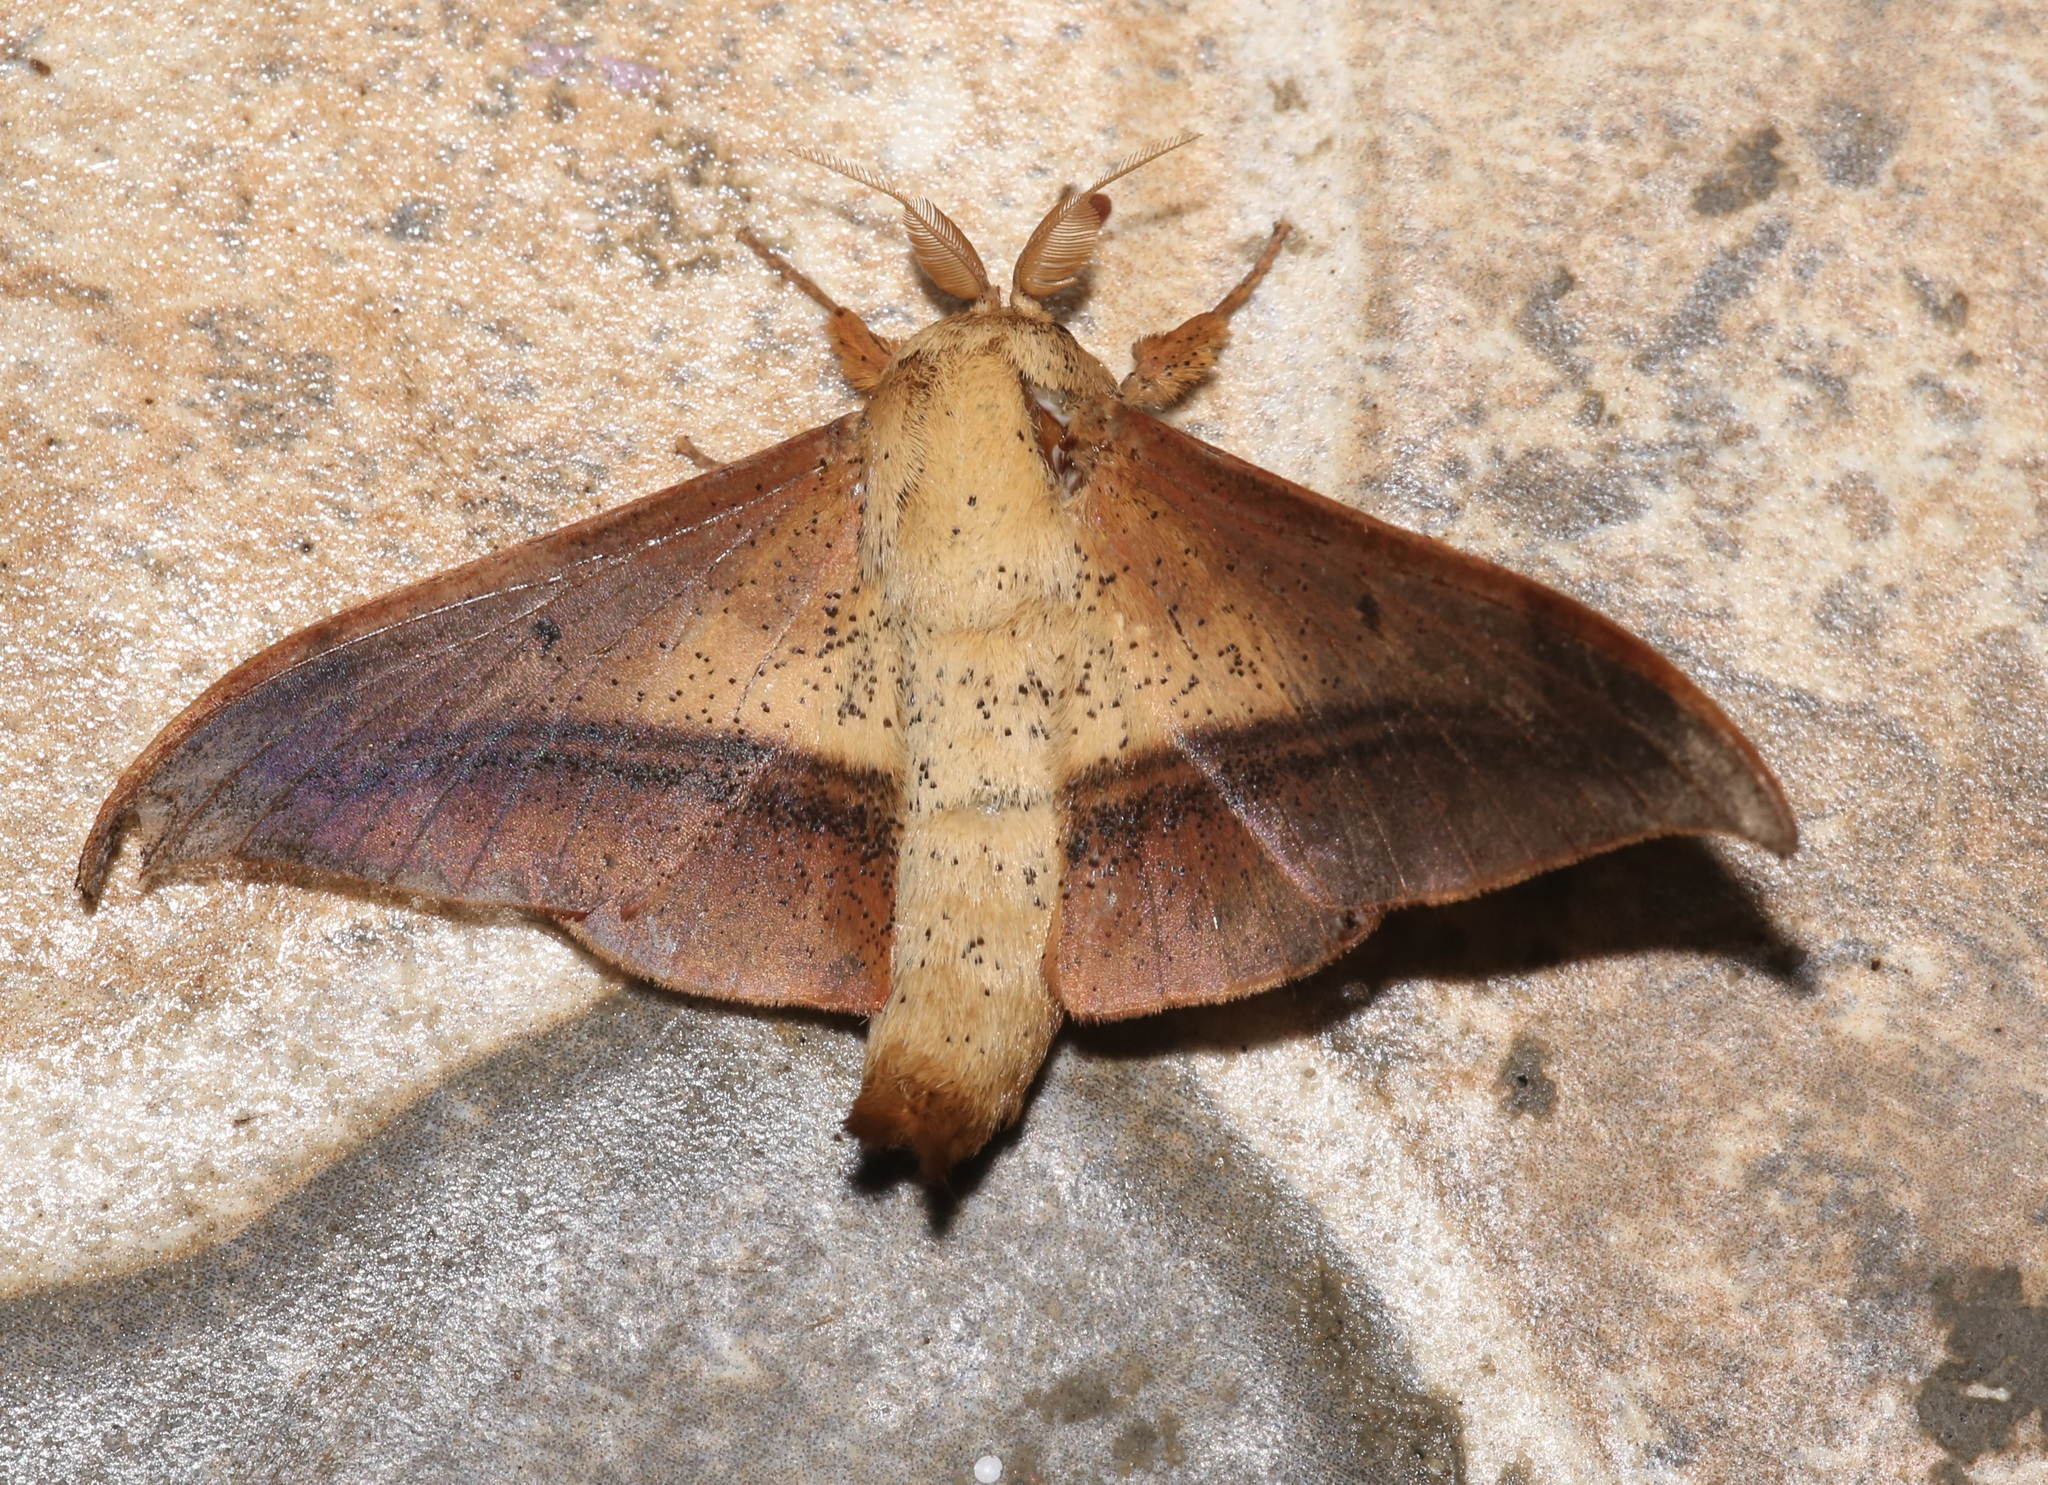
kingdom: Animalia
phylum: Arthropoda
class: Insecta
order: Lepidoptera
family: Mimallonidae
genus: Cicinnus
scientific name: Cicinnus unalca
